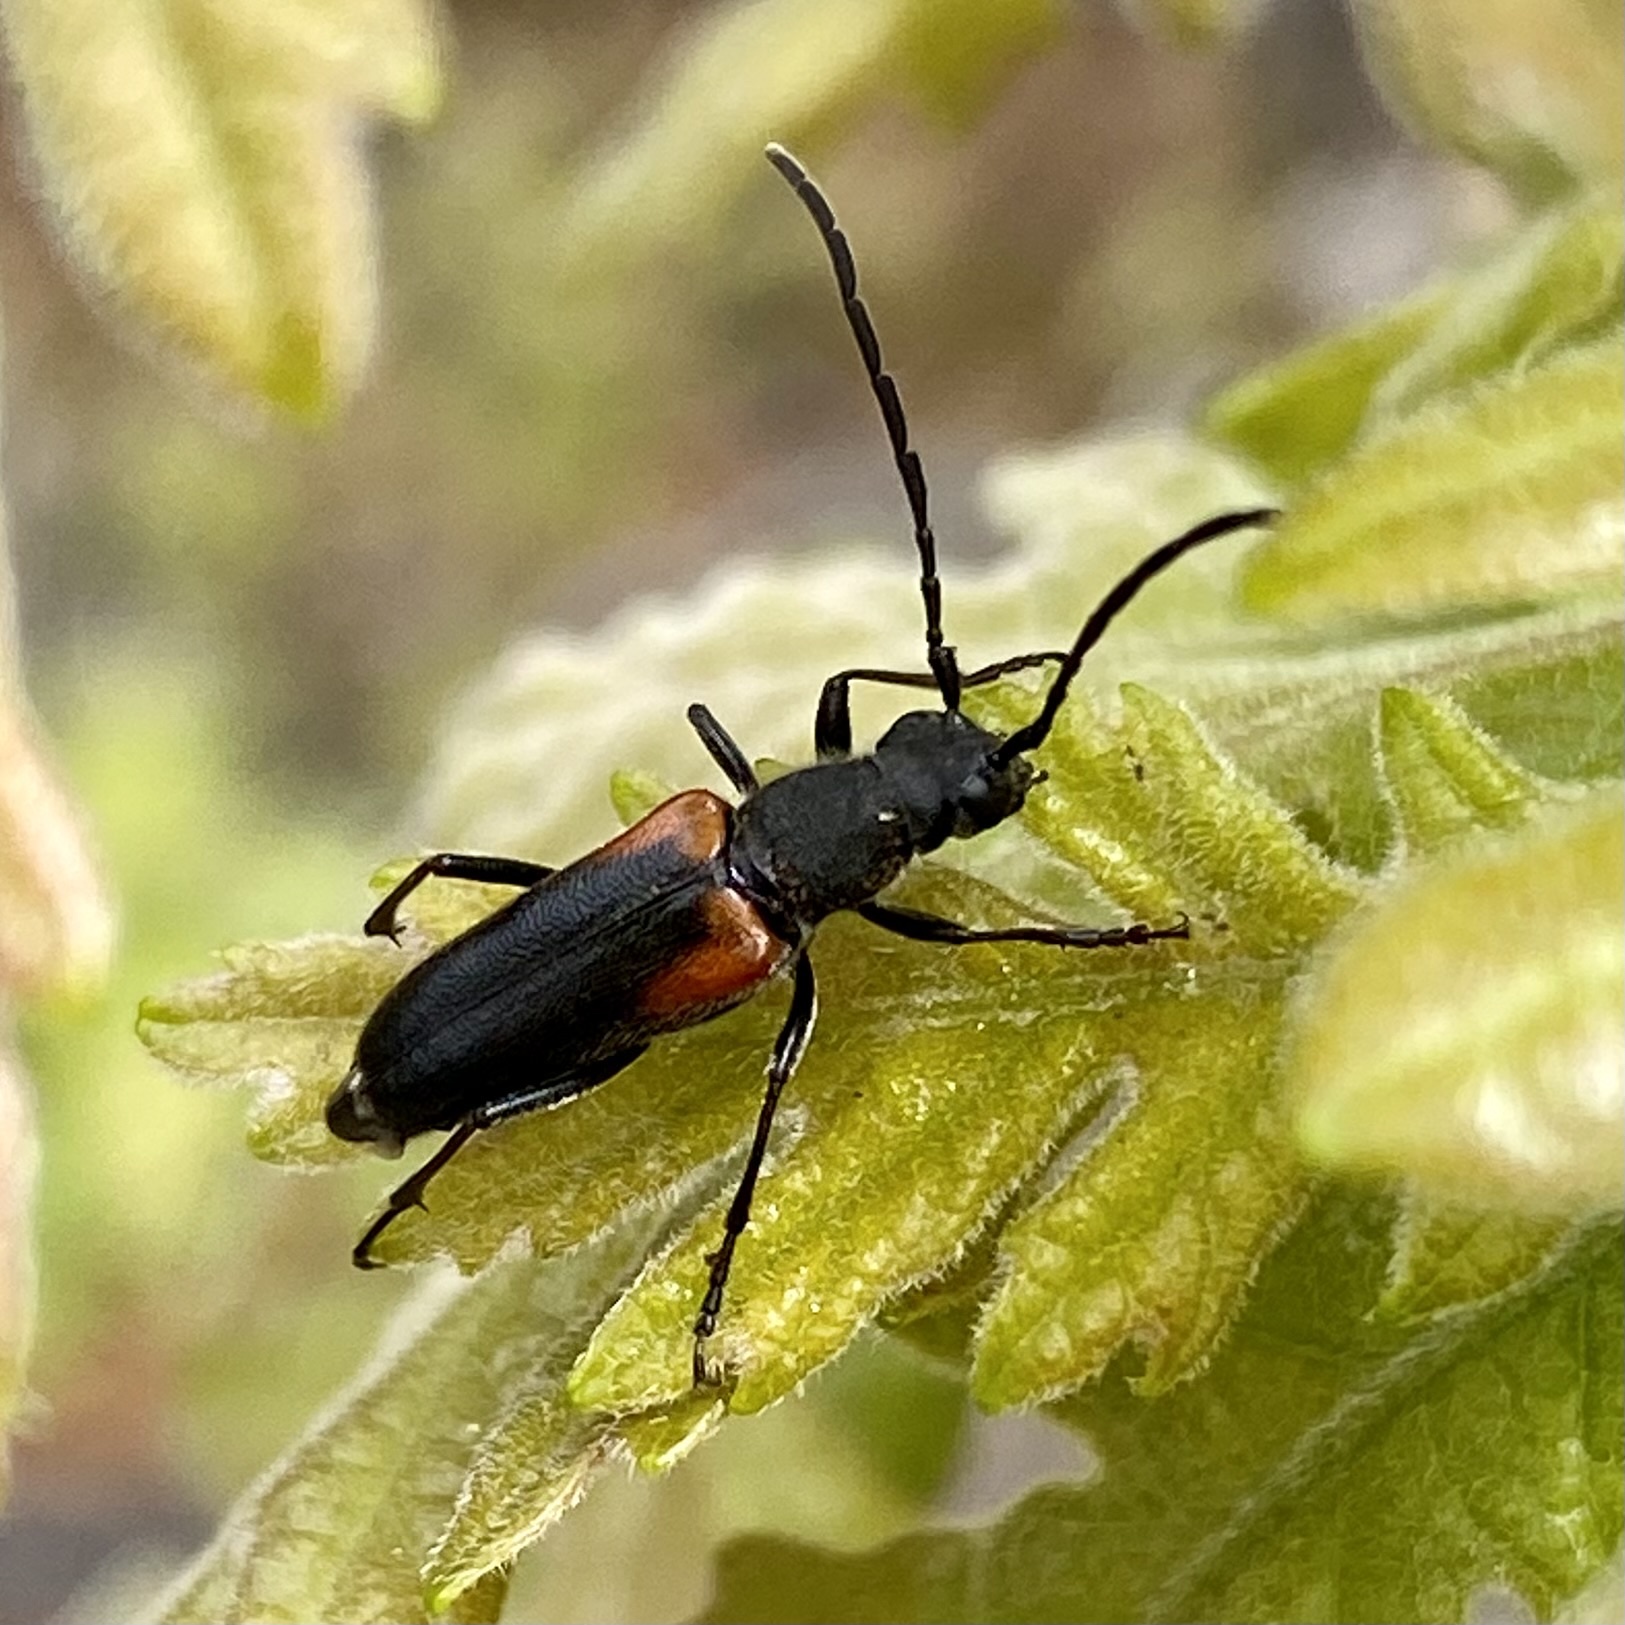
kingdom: Animalia
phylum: Arthropoda
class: Insecta
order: Coleoptera
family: Cerambycidae
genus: Anastrangalia
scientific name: Anastrangalia haldemani
